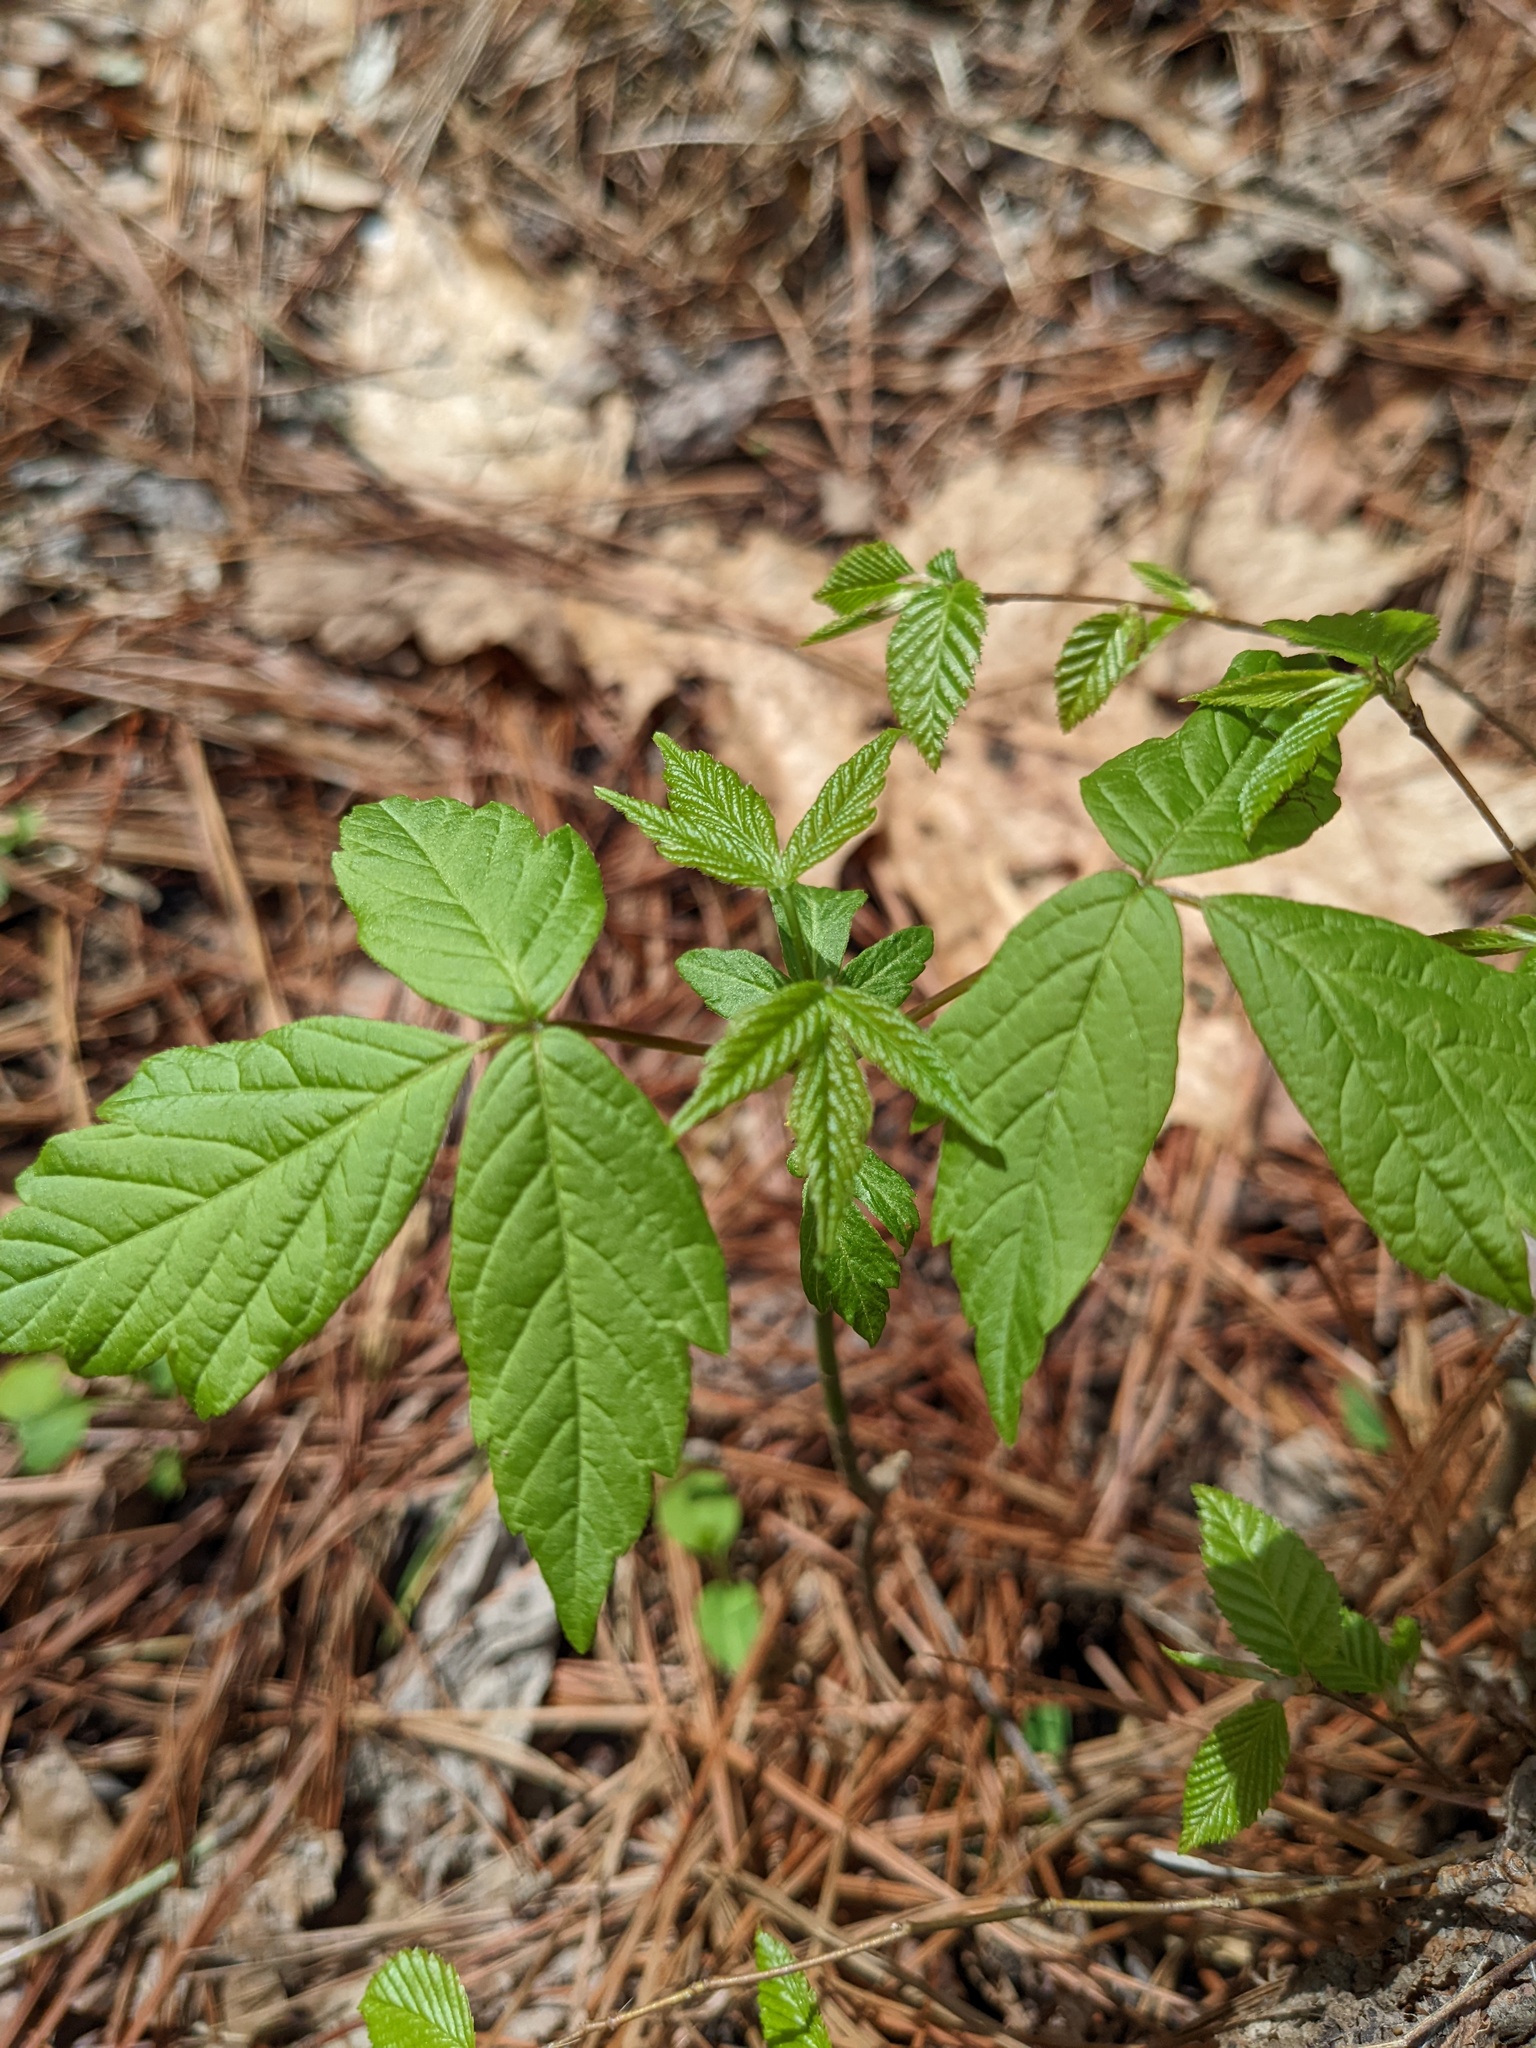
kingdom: Plantae
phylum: Tracheophyta
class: Magnoliopsida
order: Sapindales
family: Sapindaceae
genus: Acer
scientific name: Acer negundo
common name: Ashleaf maple
